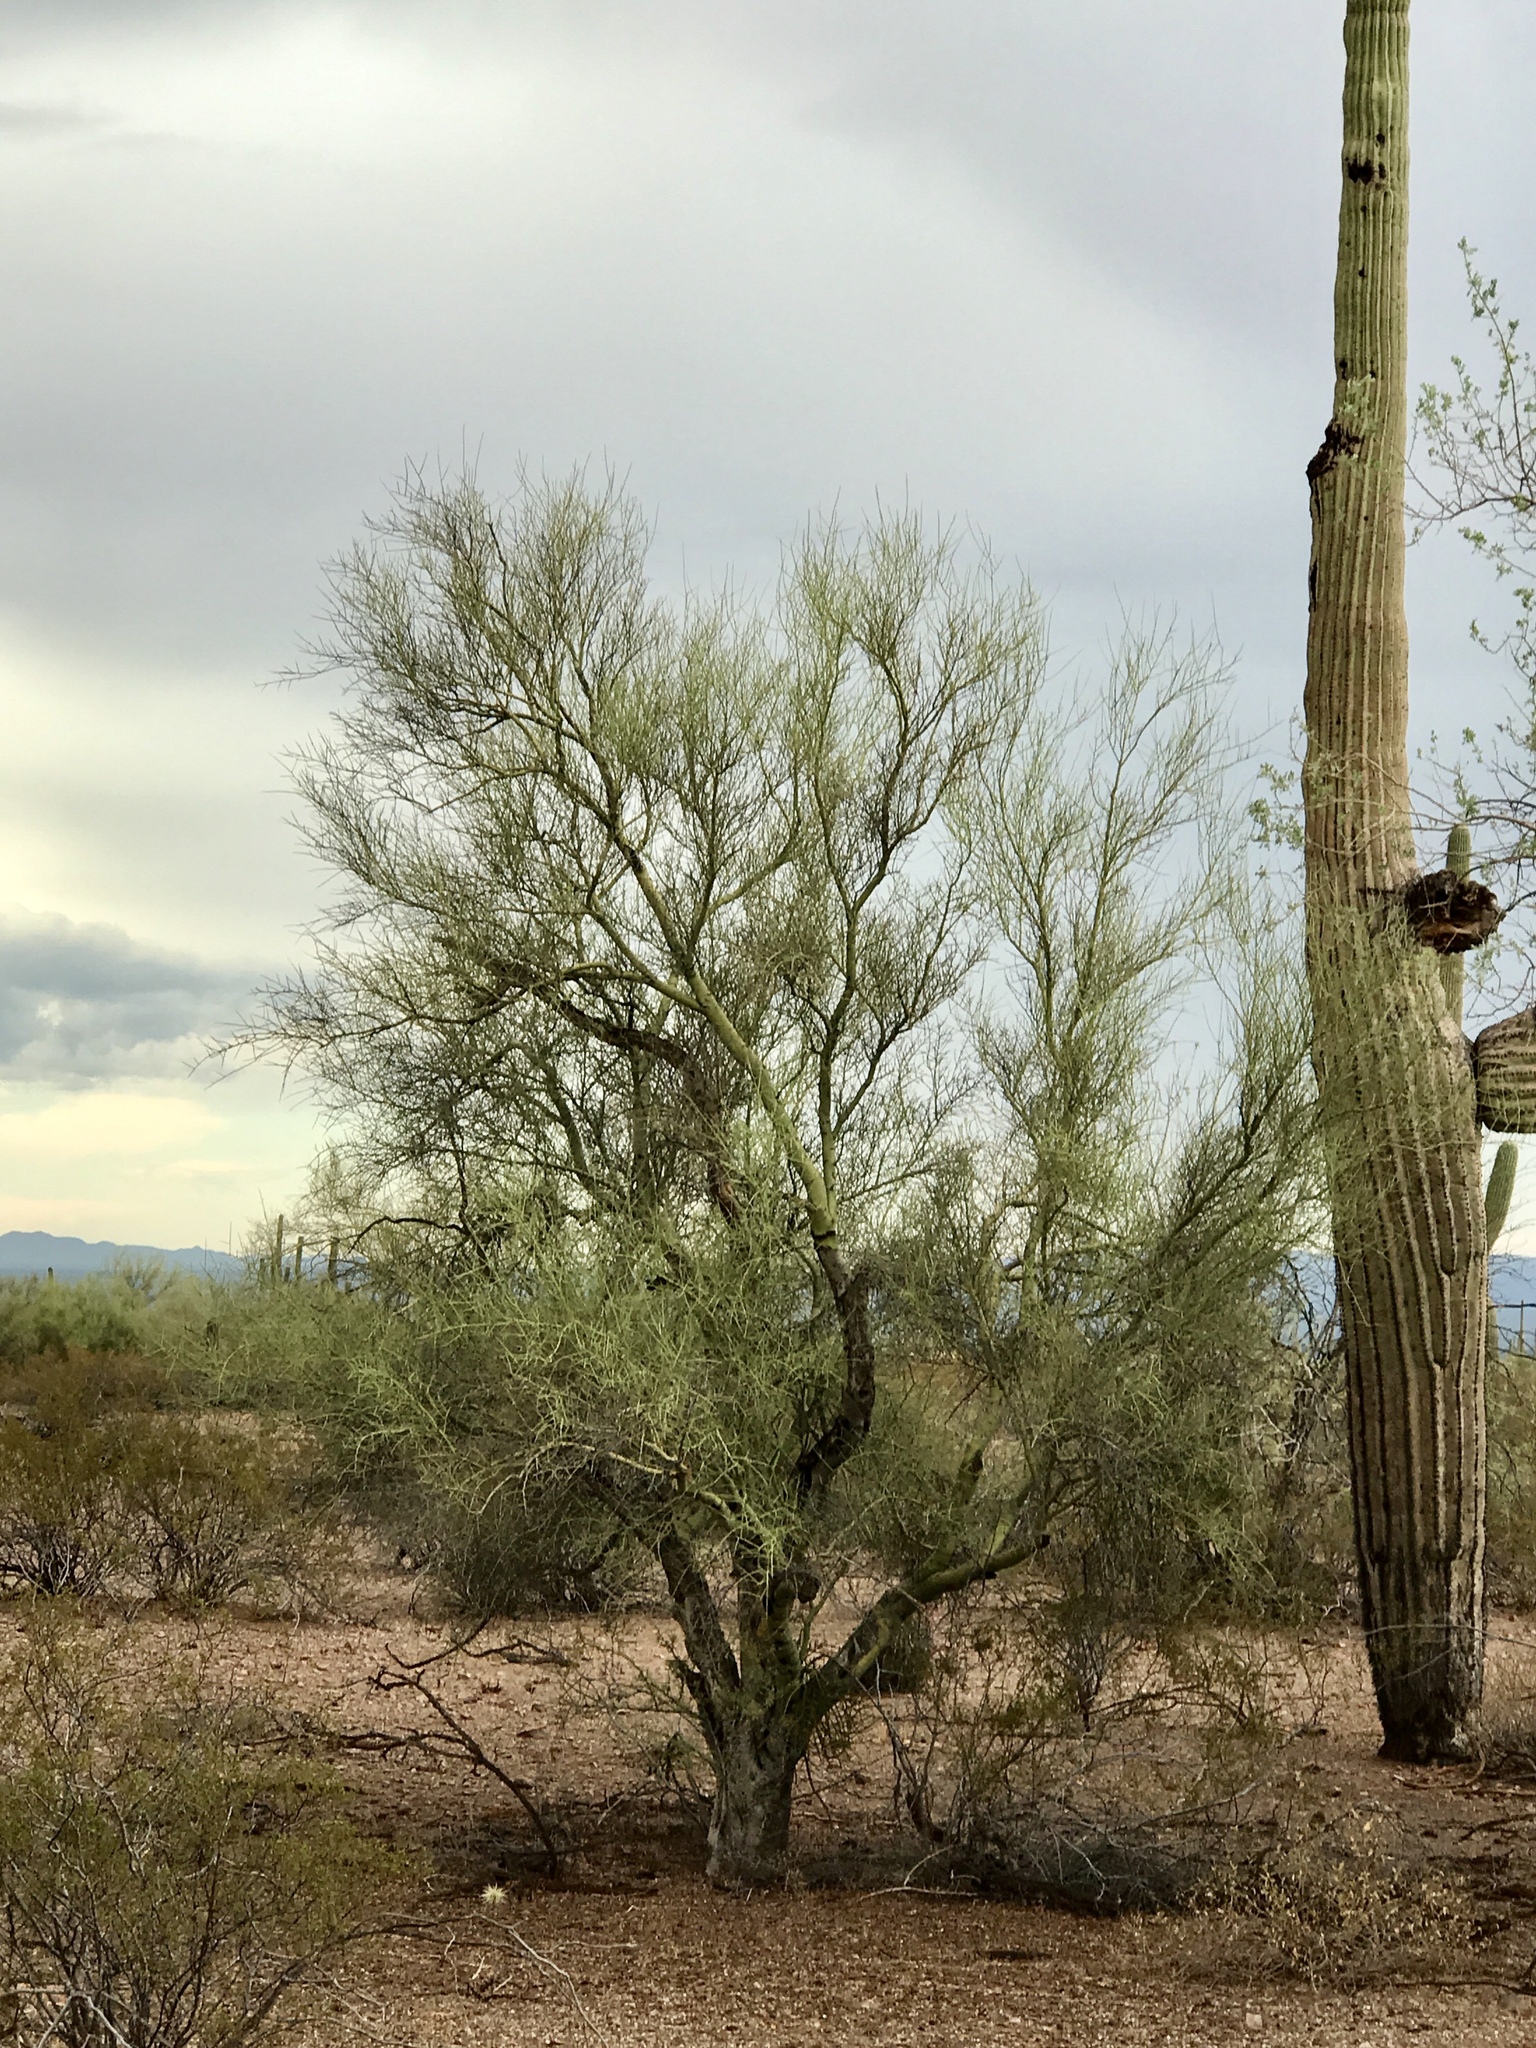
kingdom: Plantae
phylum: Tracheophyta
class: Magnoliopsida
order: Fabales
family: Fabaceae
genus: Parkinsonia
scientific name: Parkinsonia microphylla
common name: Yellow paloverde
